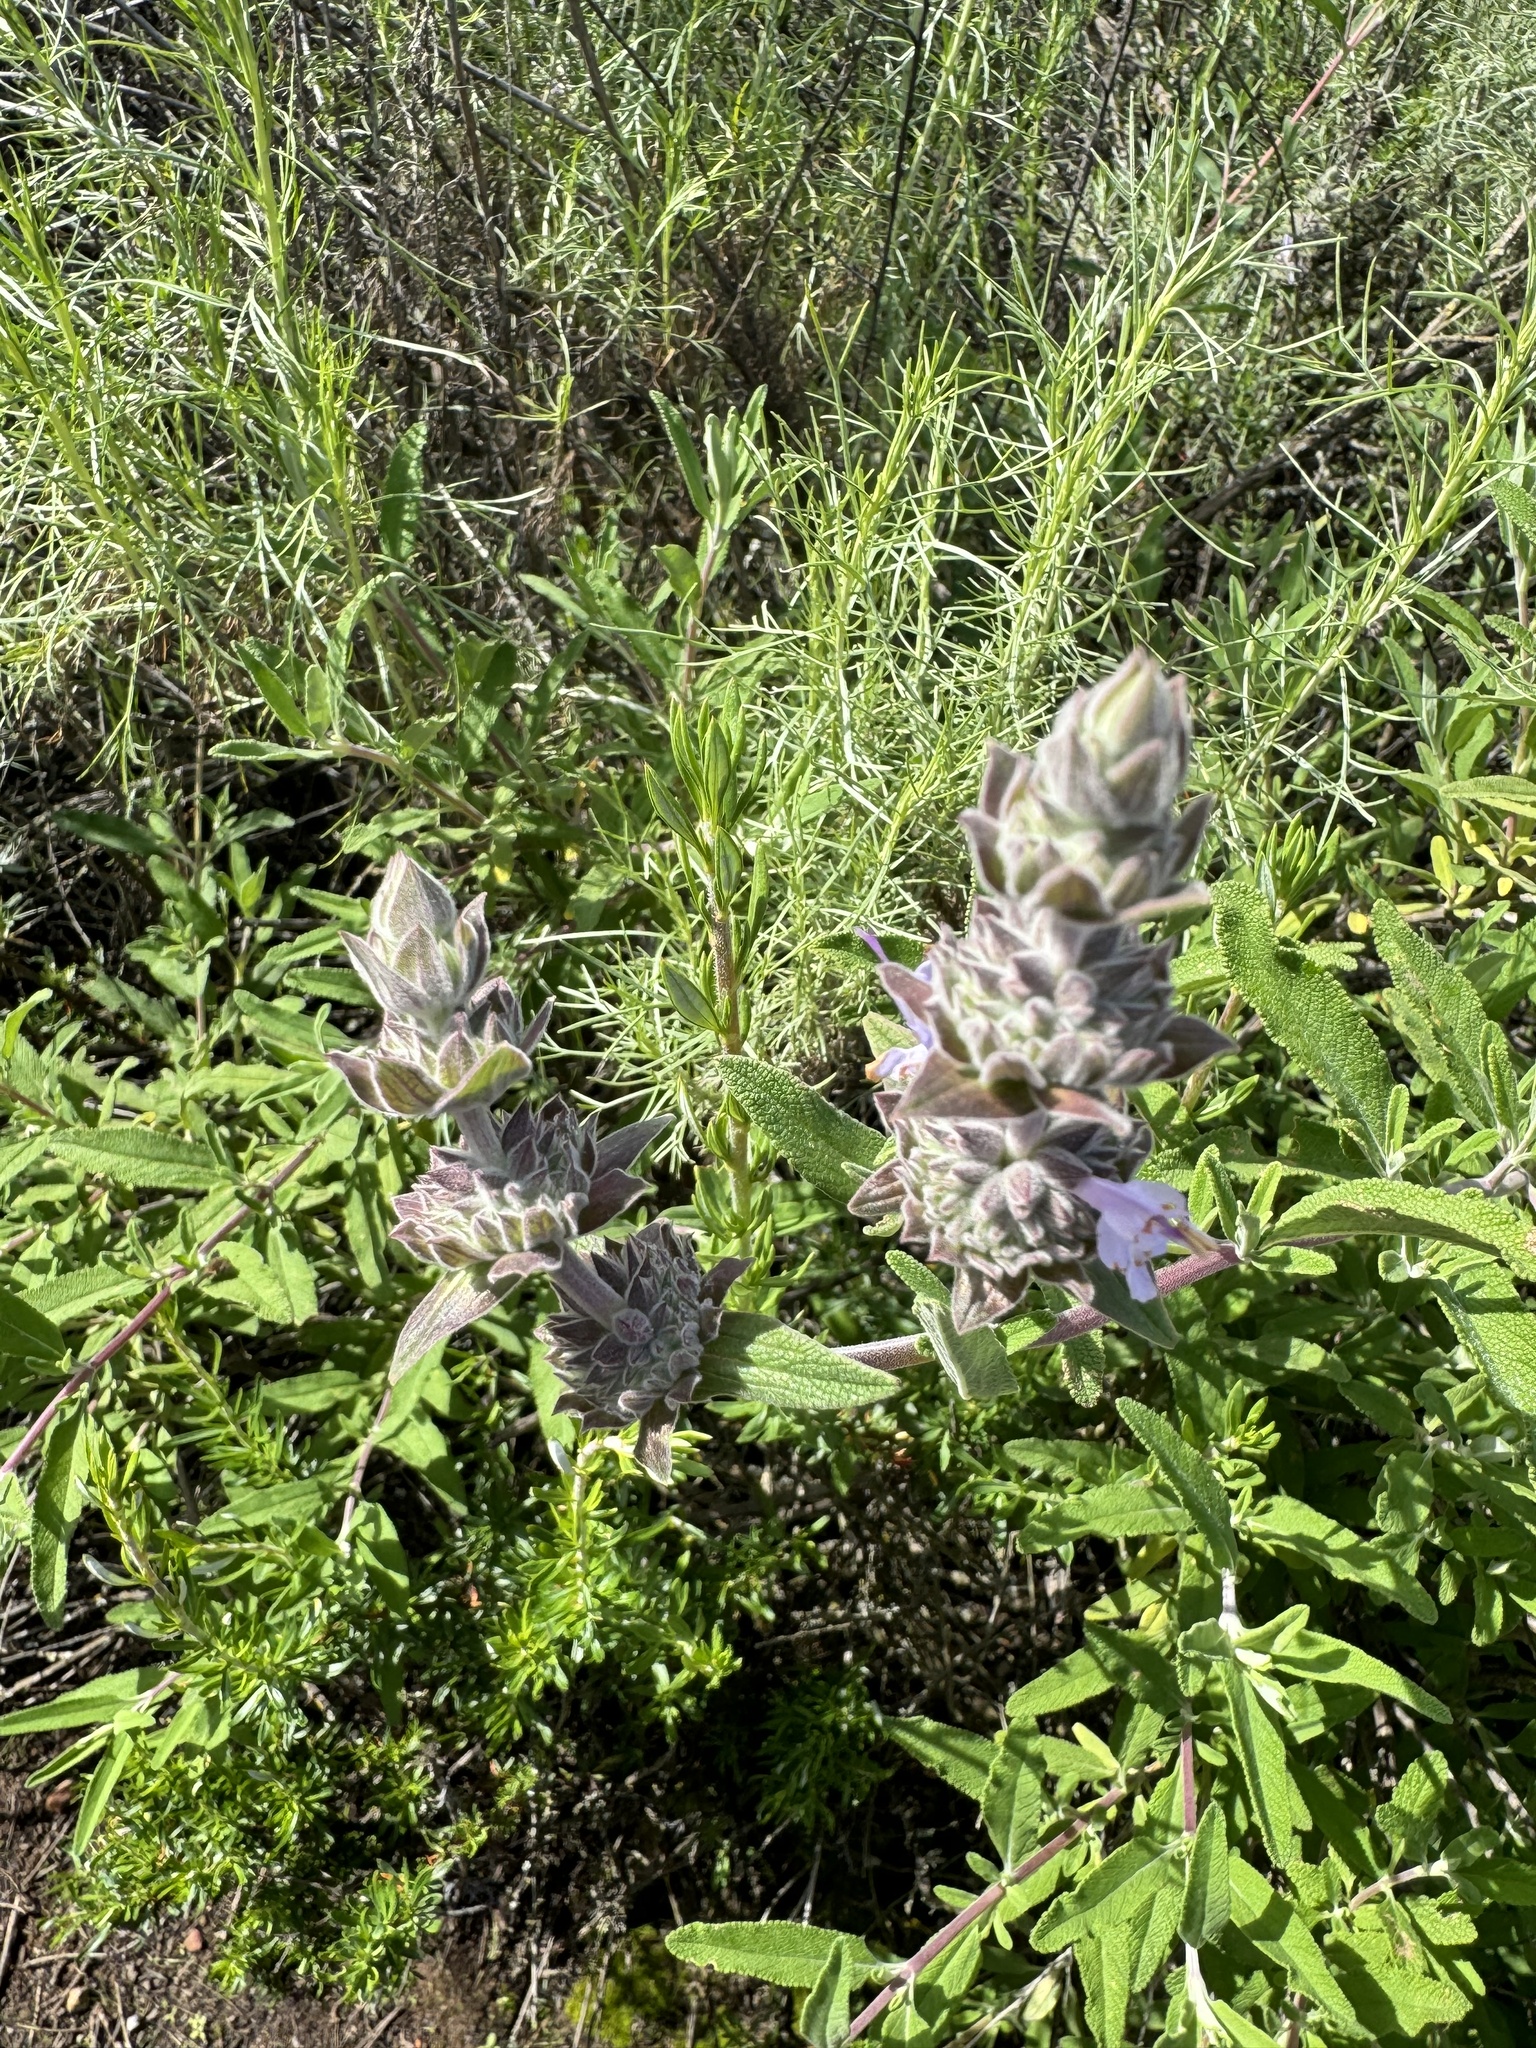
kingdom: Plantae
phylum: Tracheophyta
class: Magnoliopsida
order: Lamiales
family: Lamiaceae
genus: Salvia
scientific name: Salvia sonomensis
